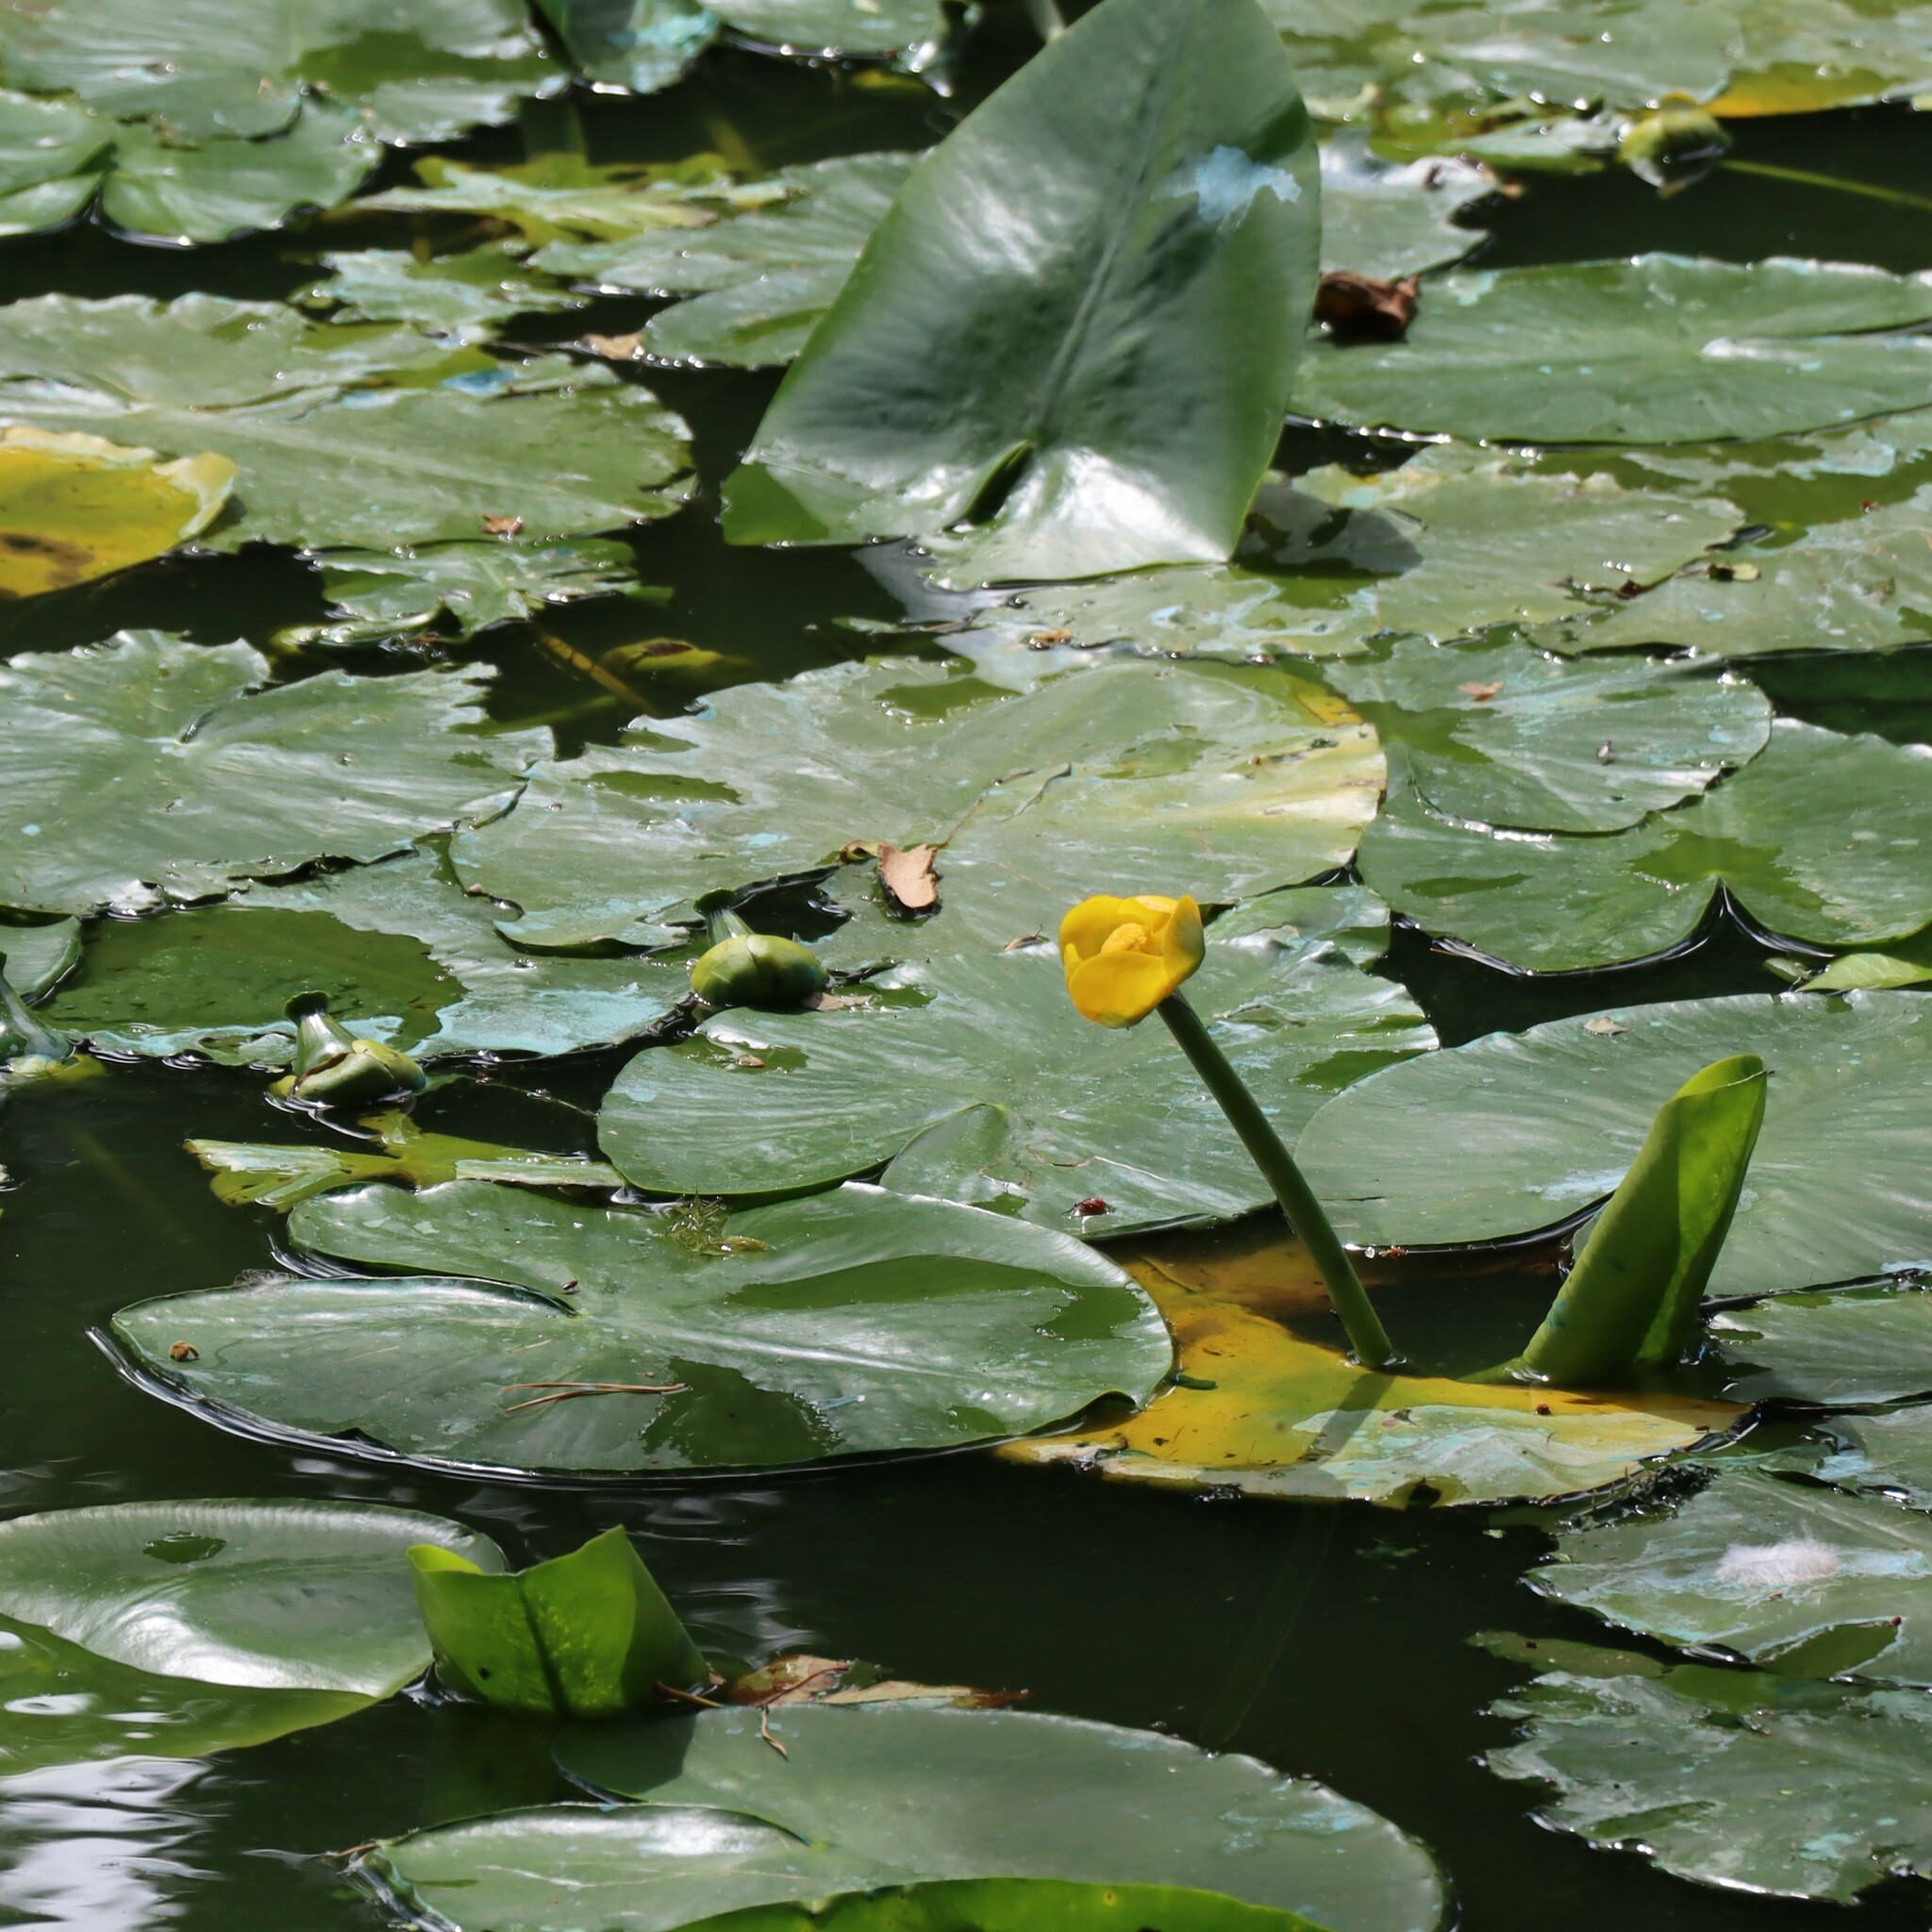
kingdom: Plantae
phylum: Tracheophyta
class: Magnoliopsida
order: Nymphaeales
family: Nymphaeaceae
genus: Nuphar
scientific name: Nuphar lutea
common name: Yellow water-lily
